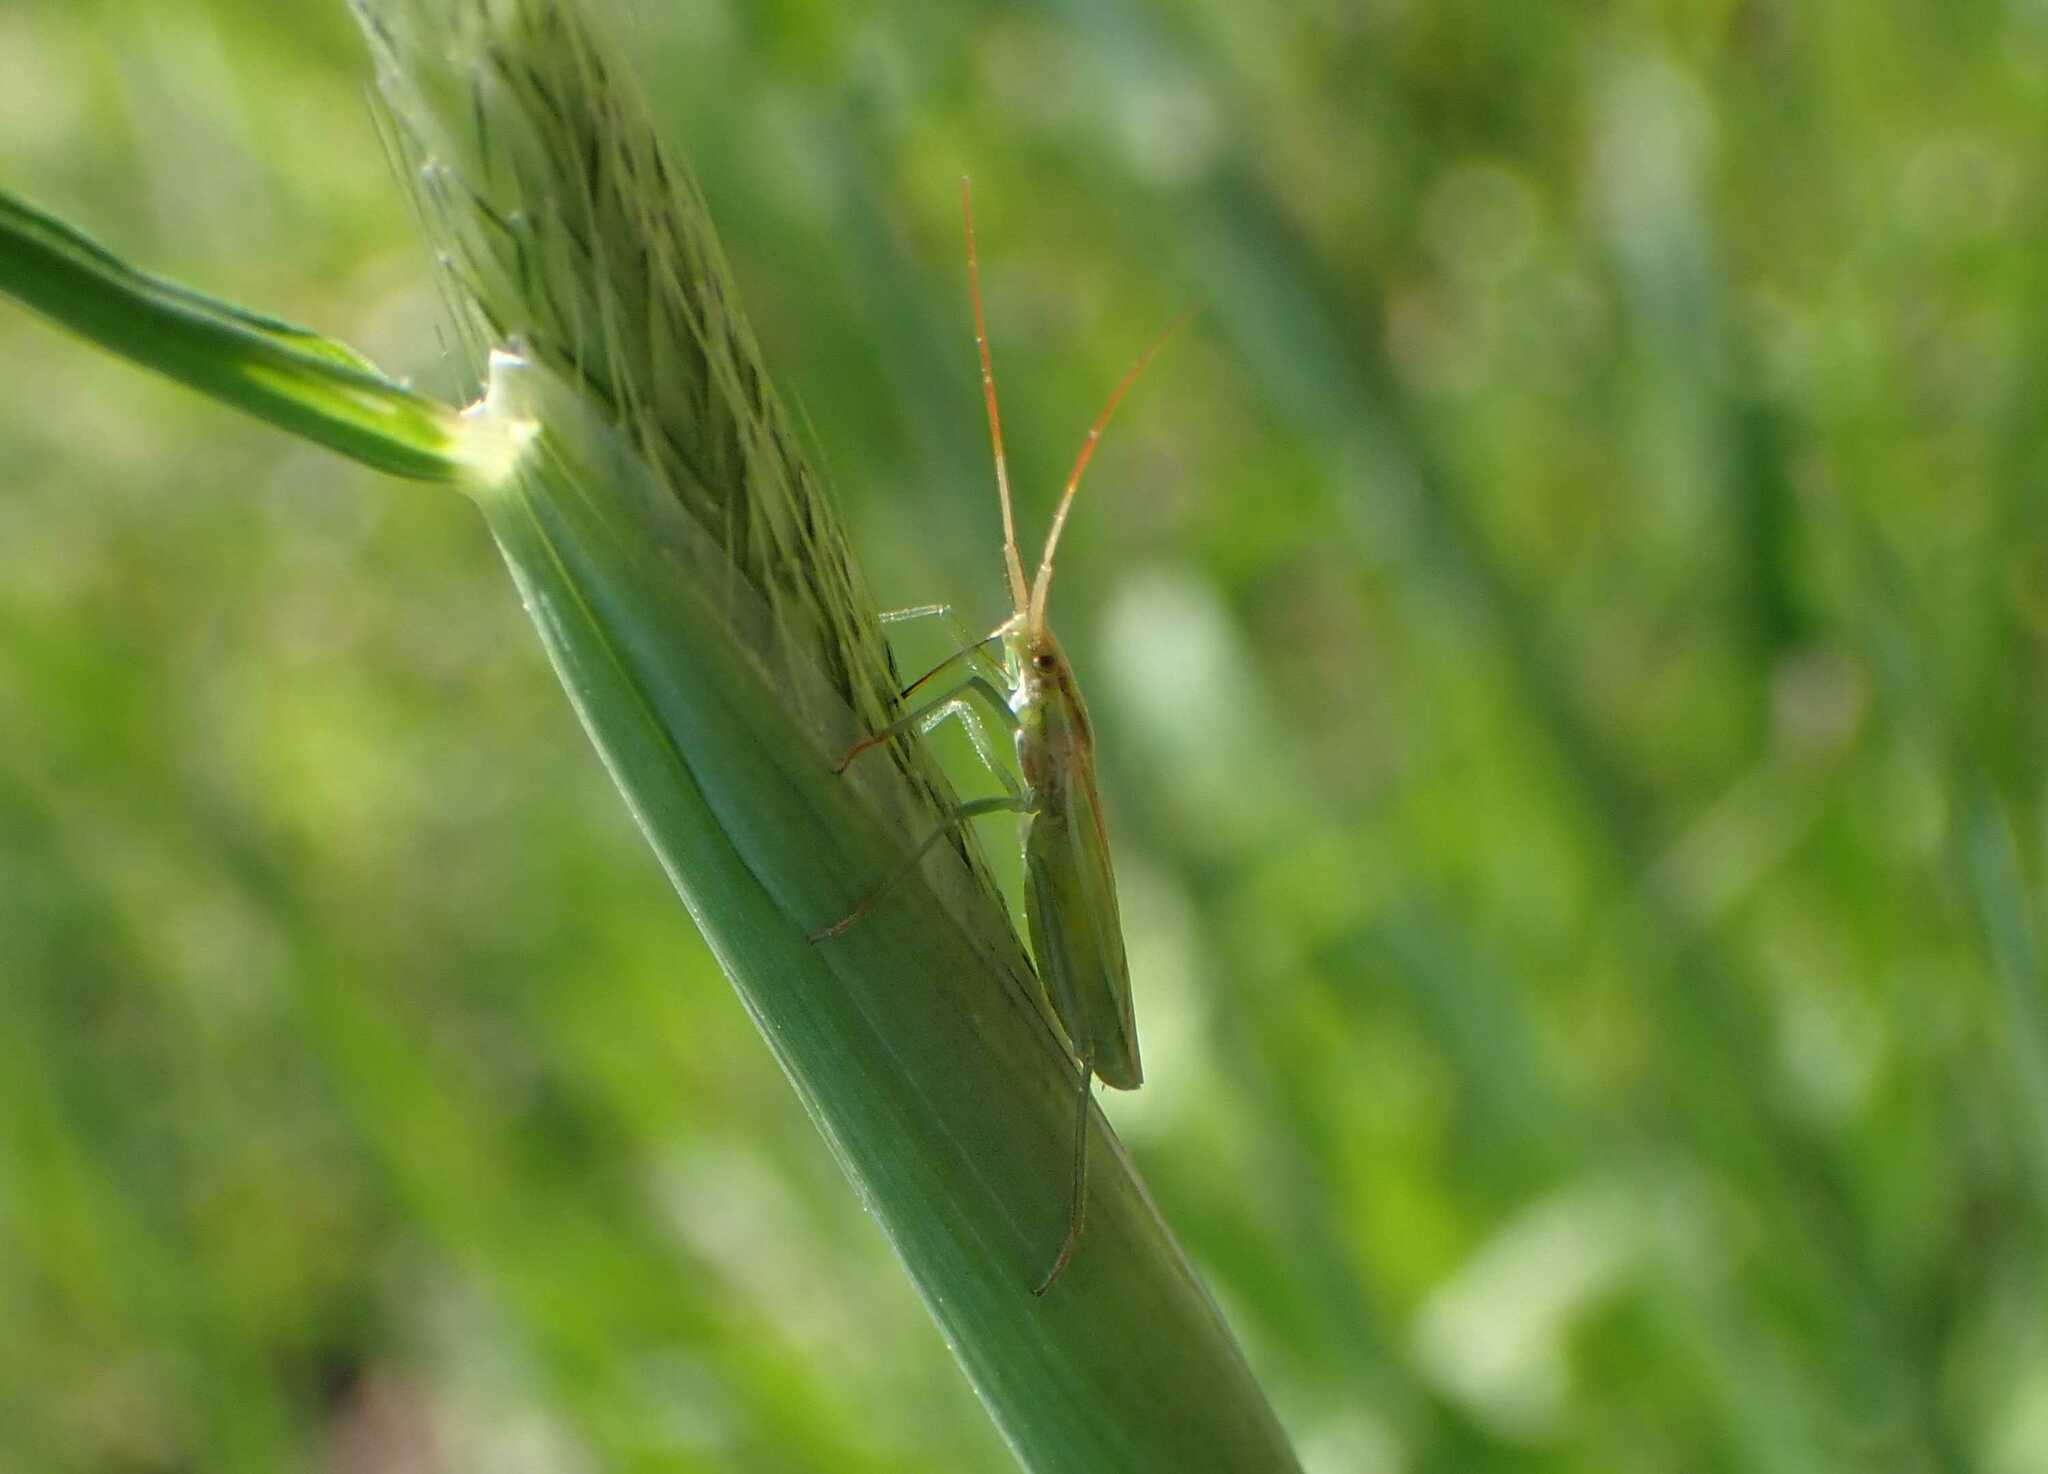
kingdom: Animalia
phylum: Arthropoda
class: Insecta
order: Hemiptera
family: Miridae
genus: Stenodema
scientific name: Stenodema laevigata
